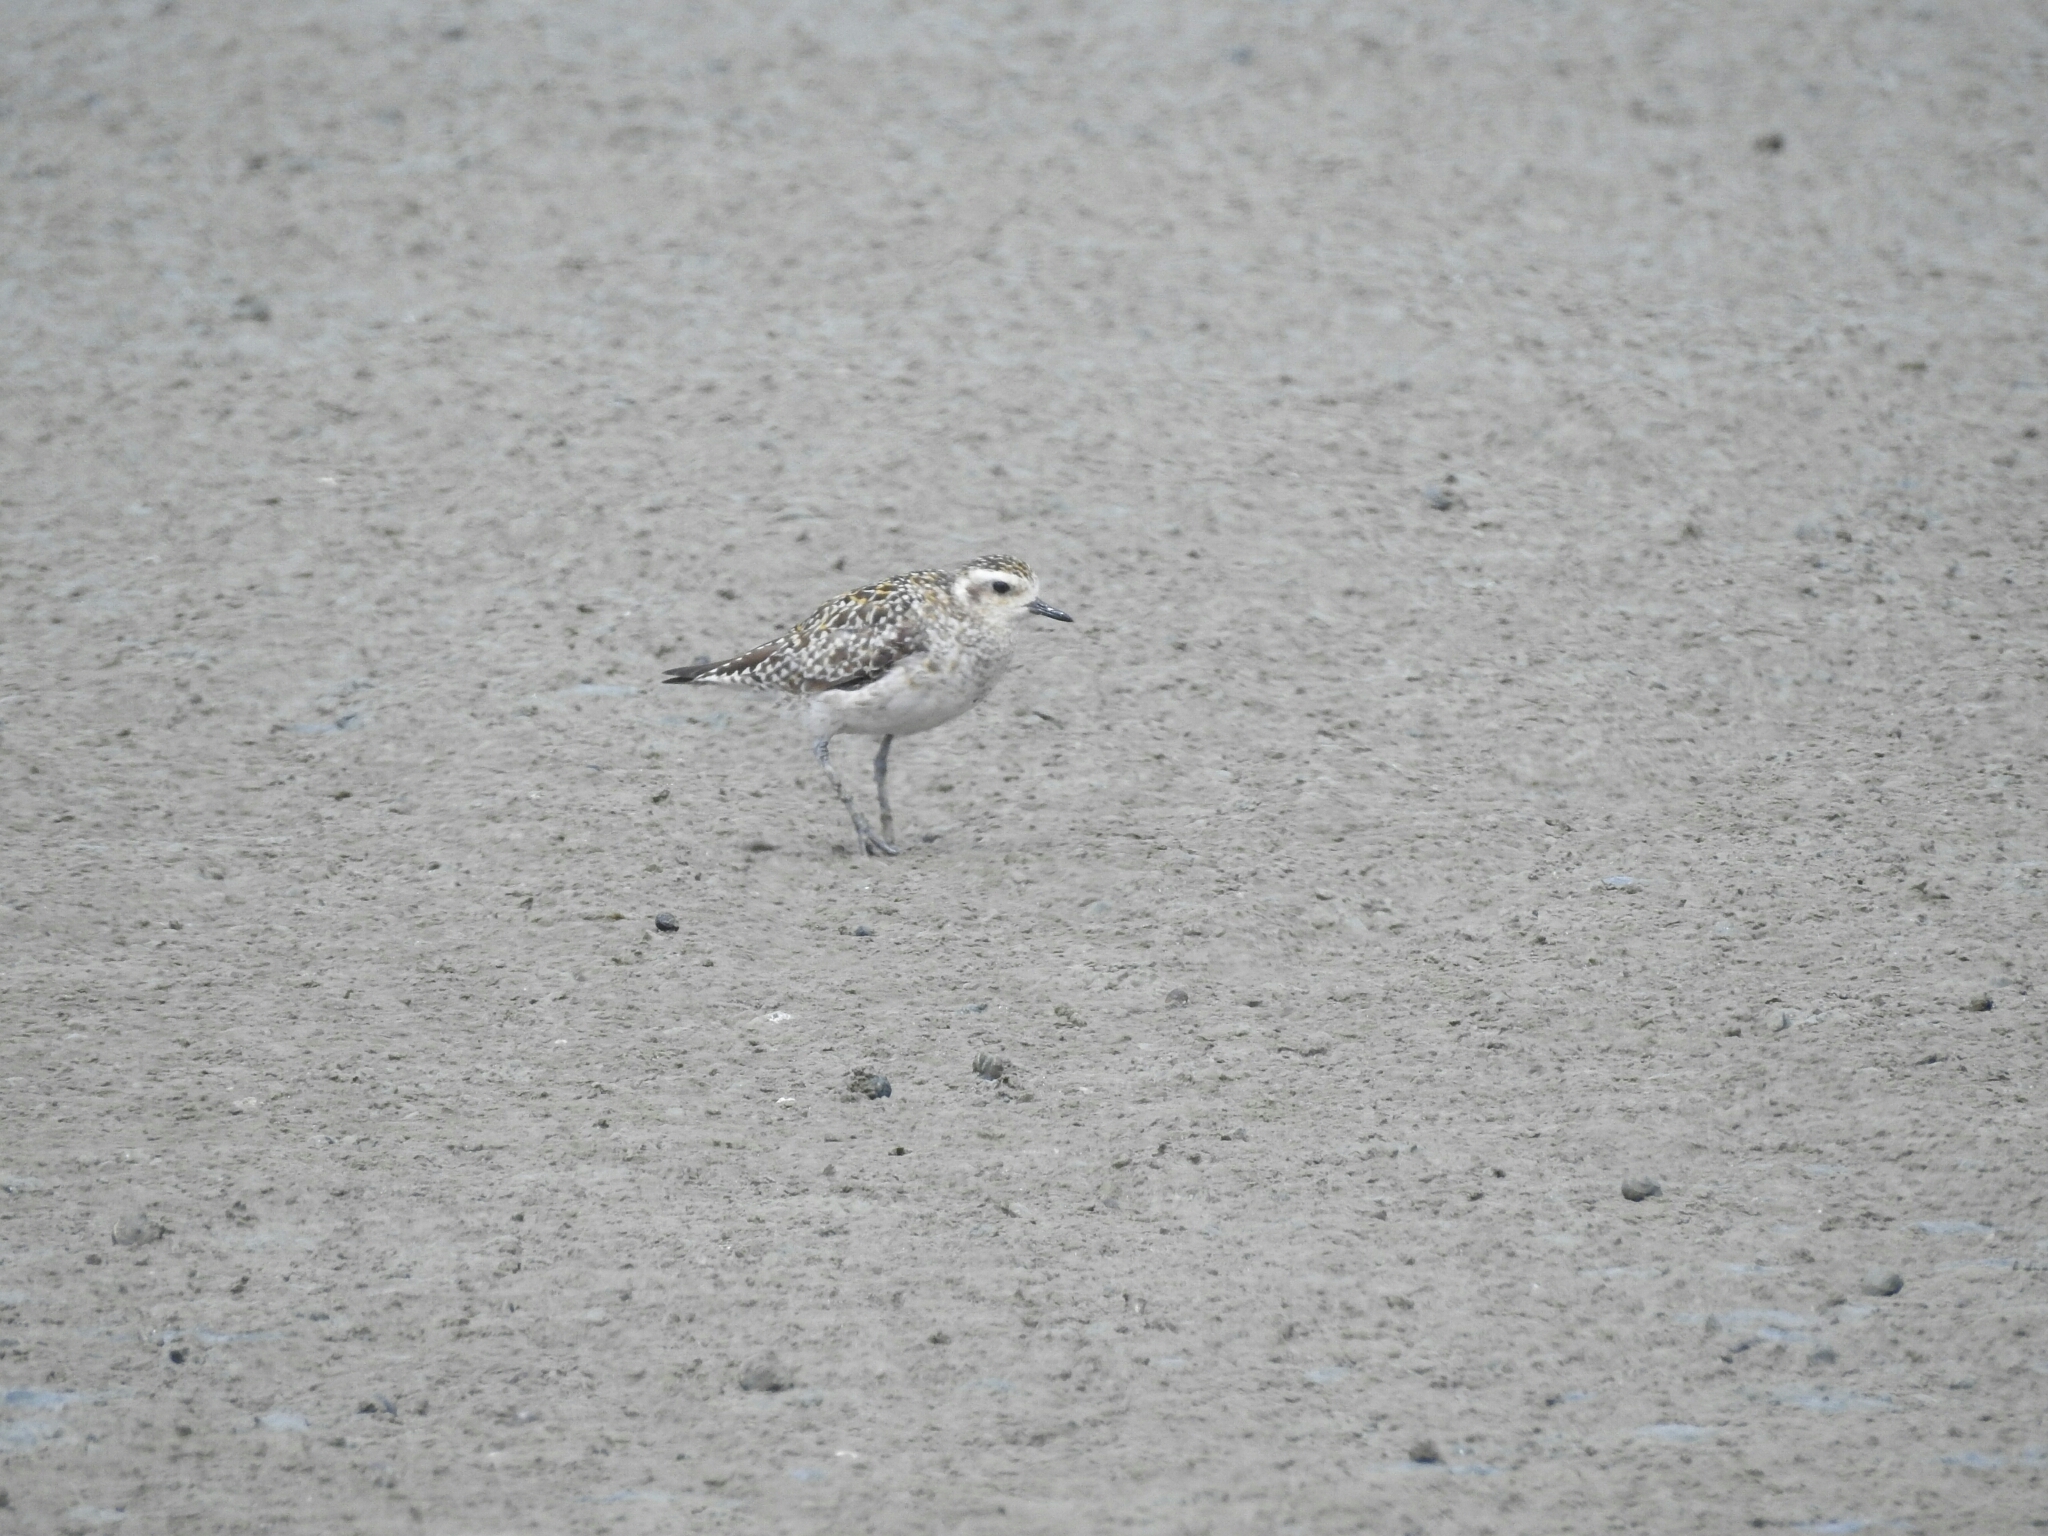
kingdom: Animalia
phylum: Chordata
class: Aves
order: Charadriiformes
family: Charadriidae
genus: Pluvialis
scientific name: Pluvialis fulva
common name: Pacific golden plover
